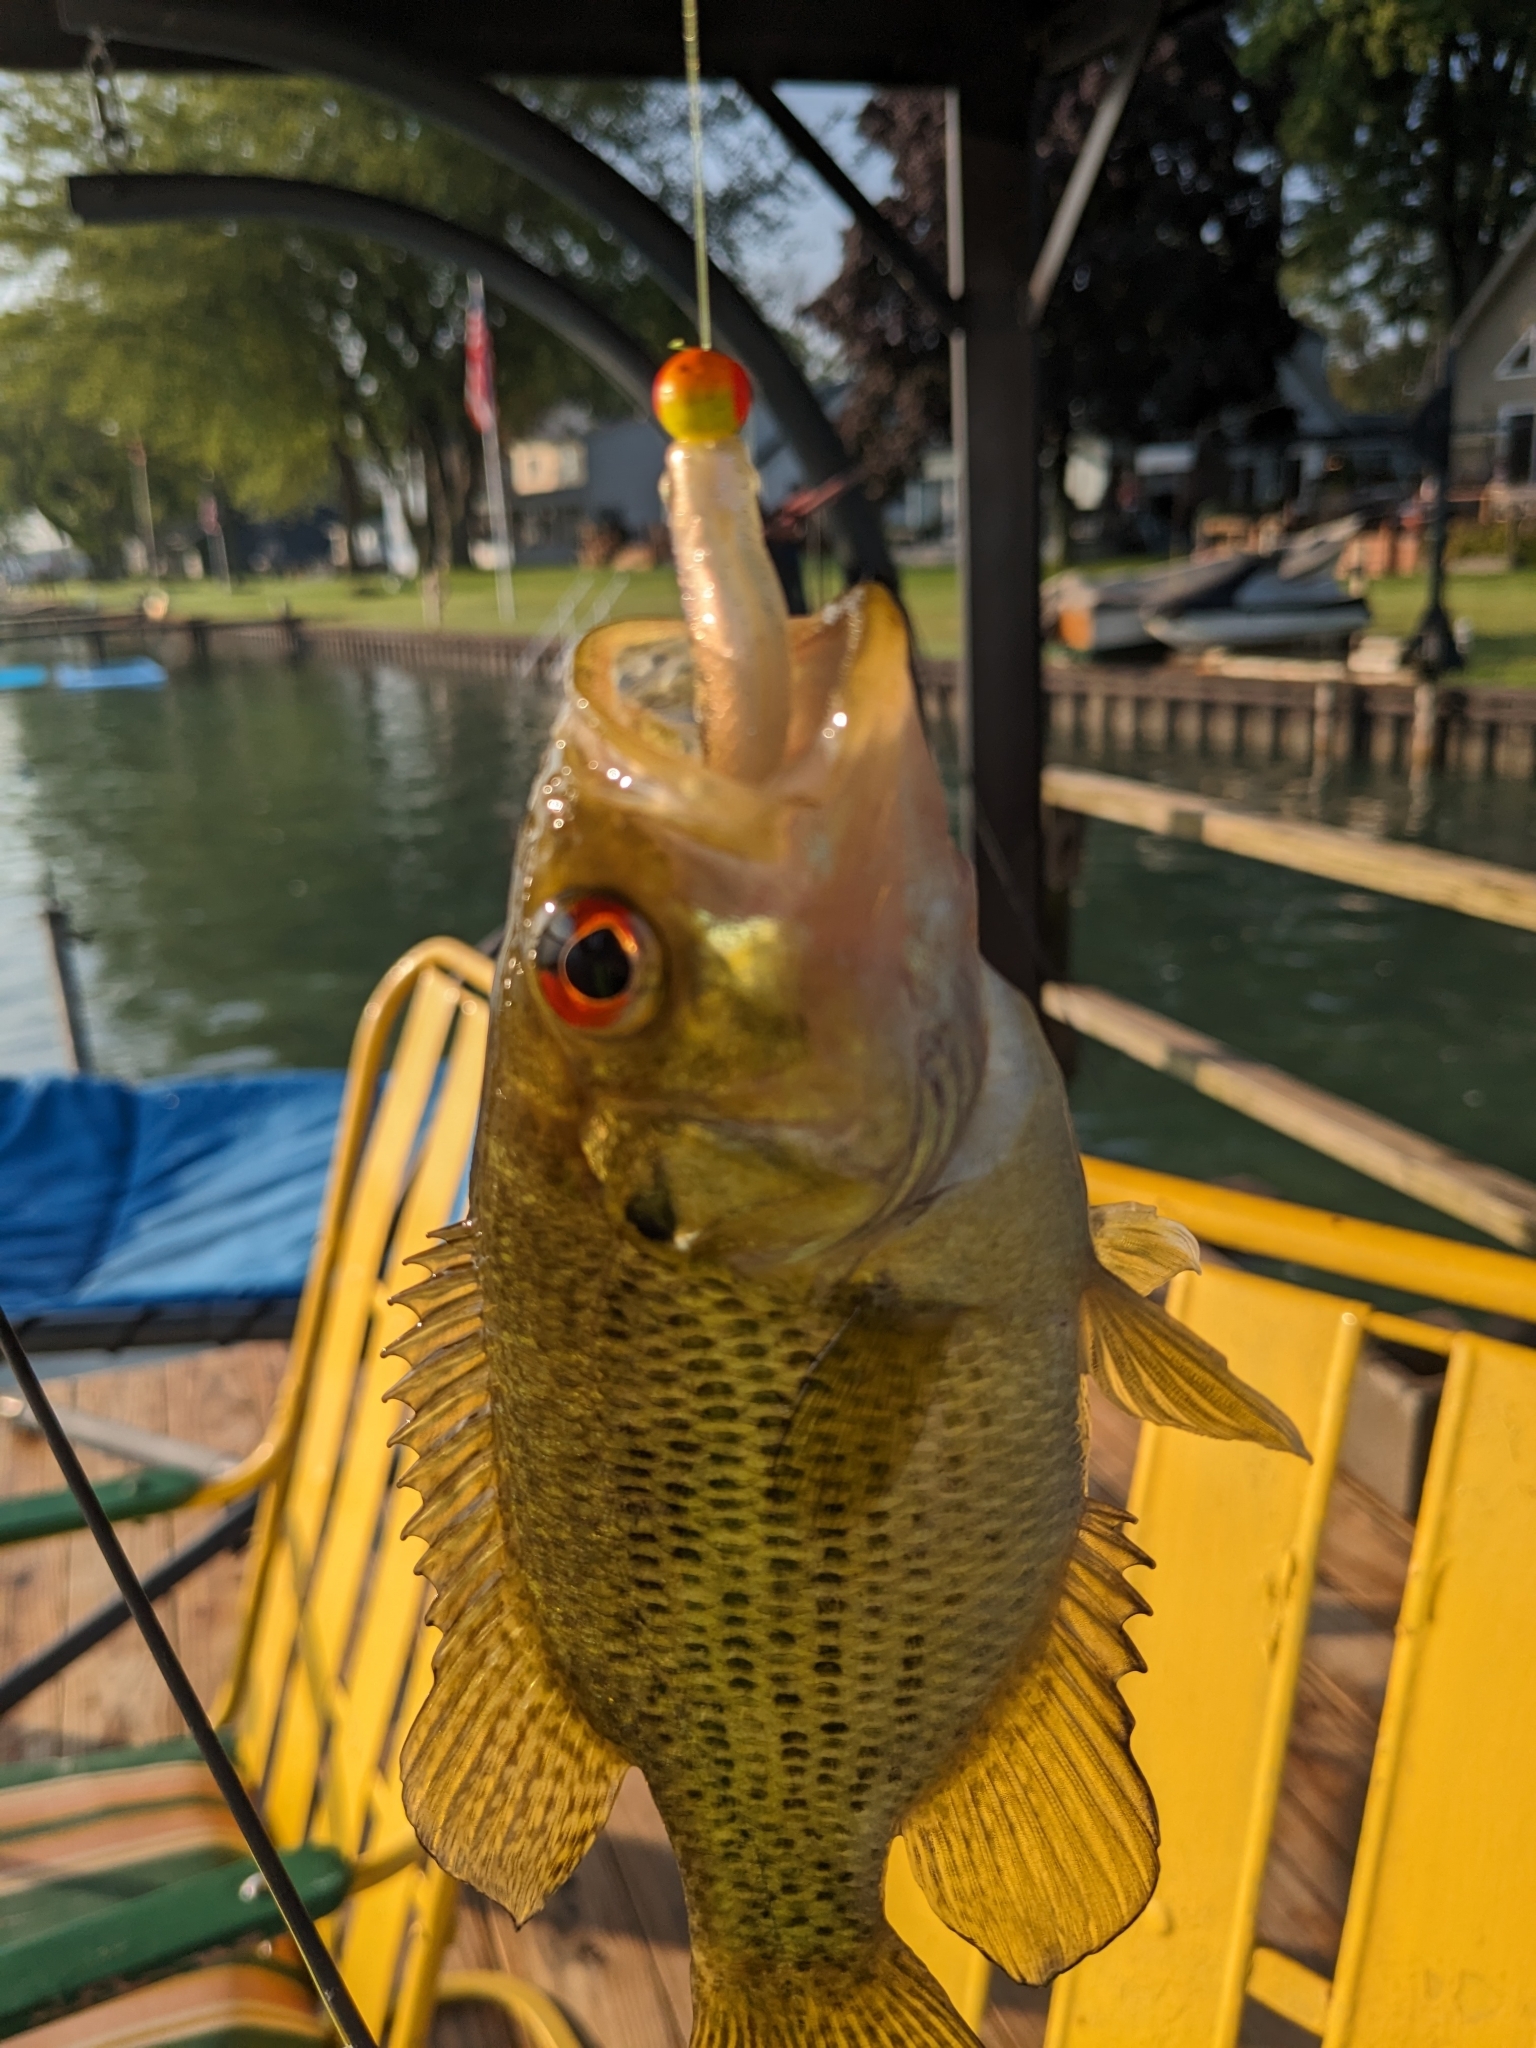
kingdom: Animalia
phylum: Chordata
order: Perciformes
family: Centrarchidae
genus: Ambloplites
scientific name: Ambloplites rupestris
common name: Rock bass
